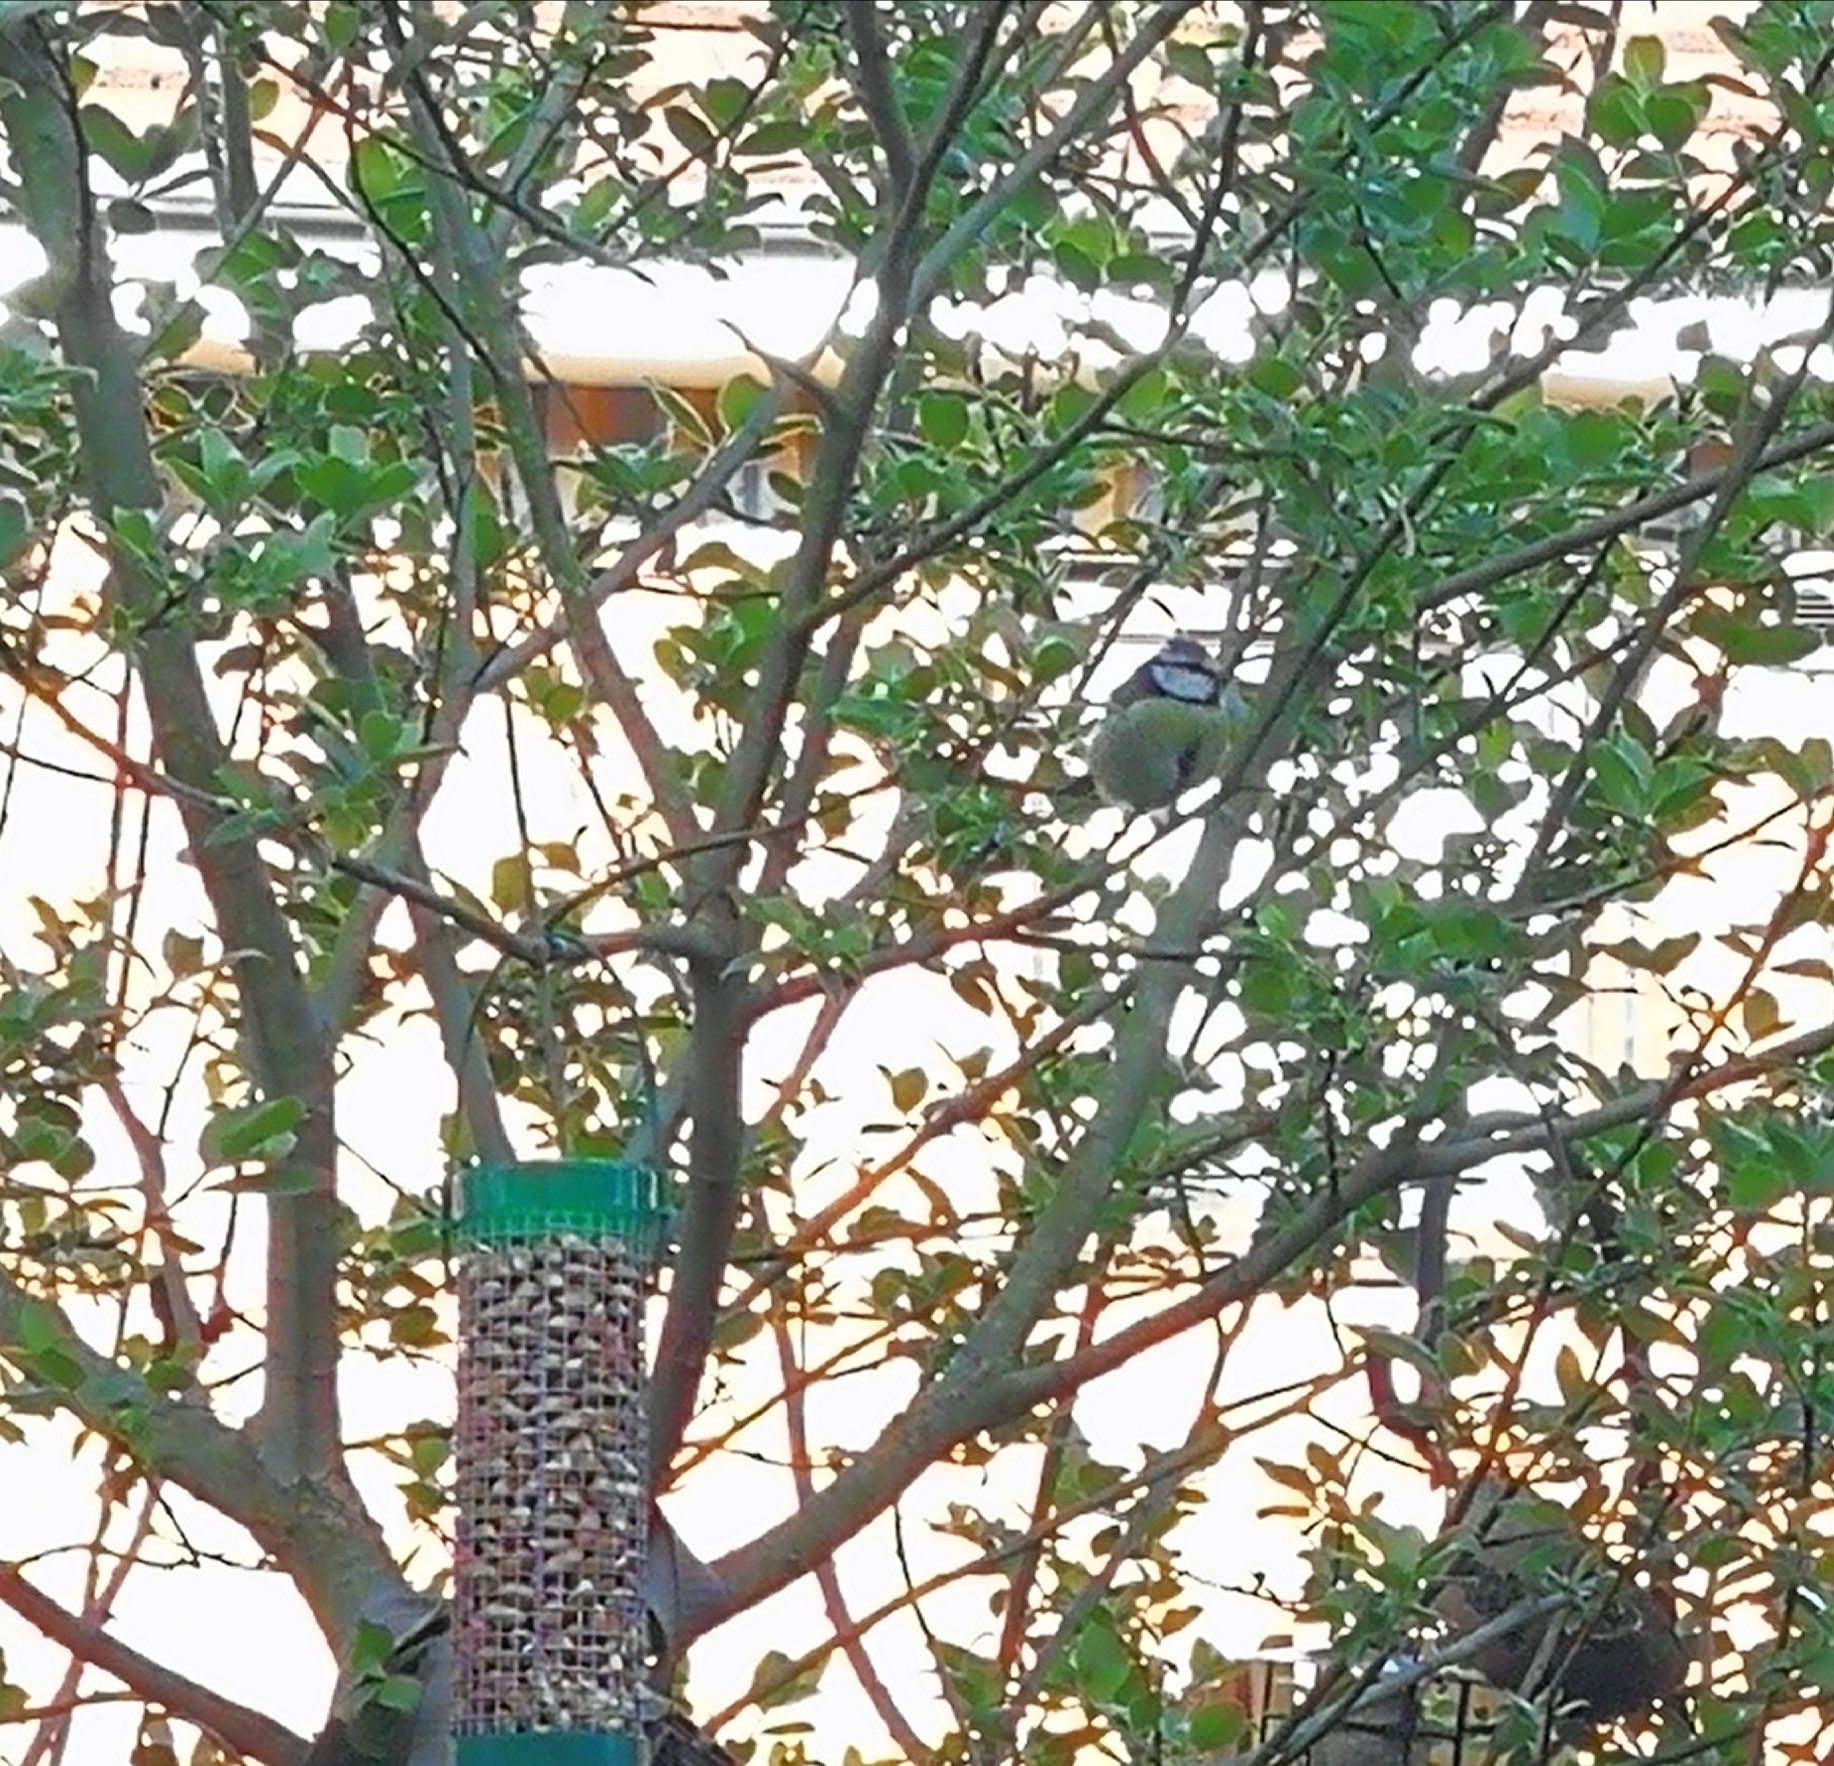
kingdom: Animalia
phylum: Chordata
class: Aves
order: Passeriformes
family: Paridae
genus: Cyanistes
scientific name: Cyanistes caeruleus
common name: Eurasian blue tit
